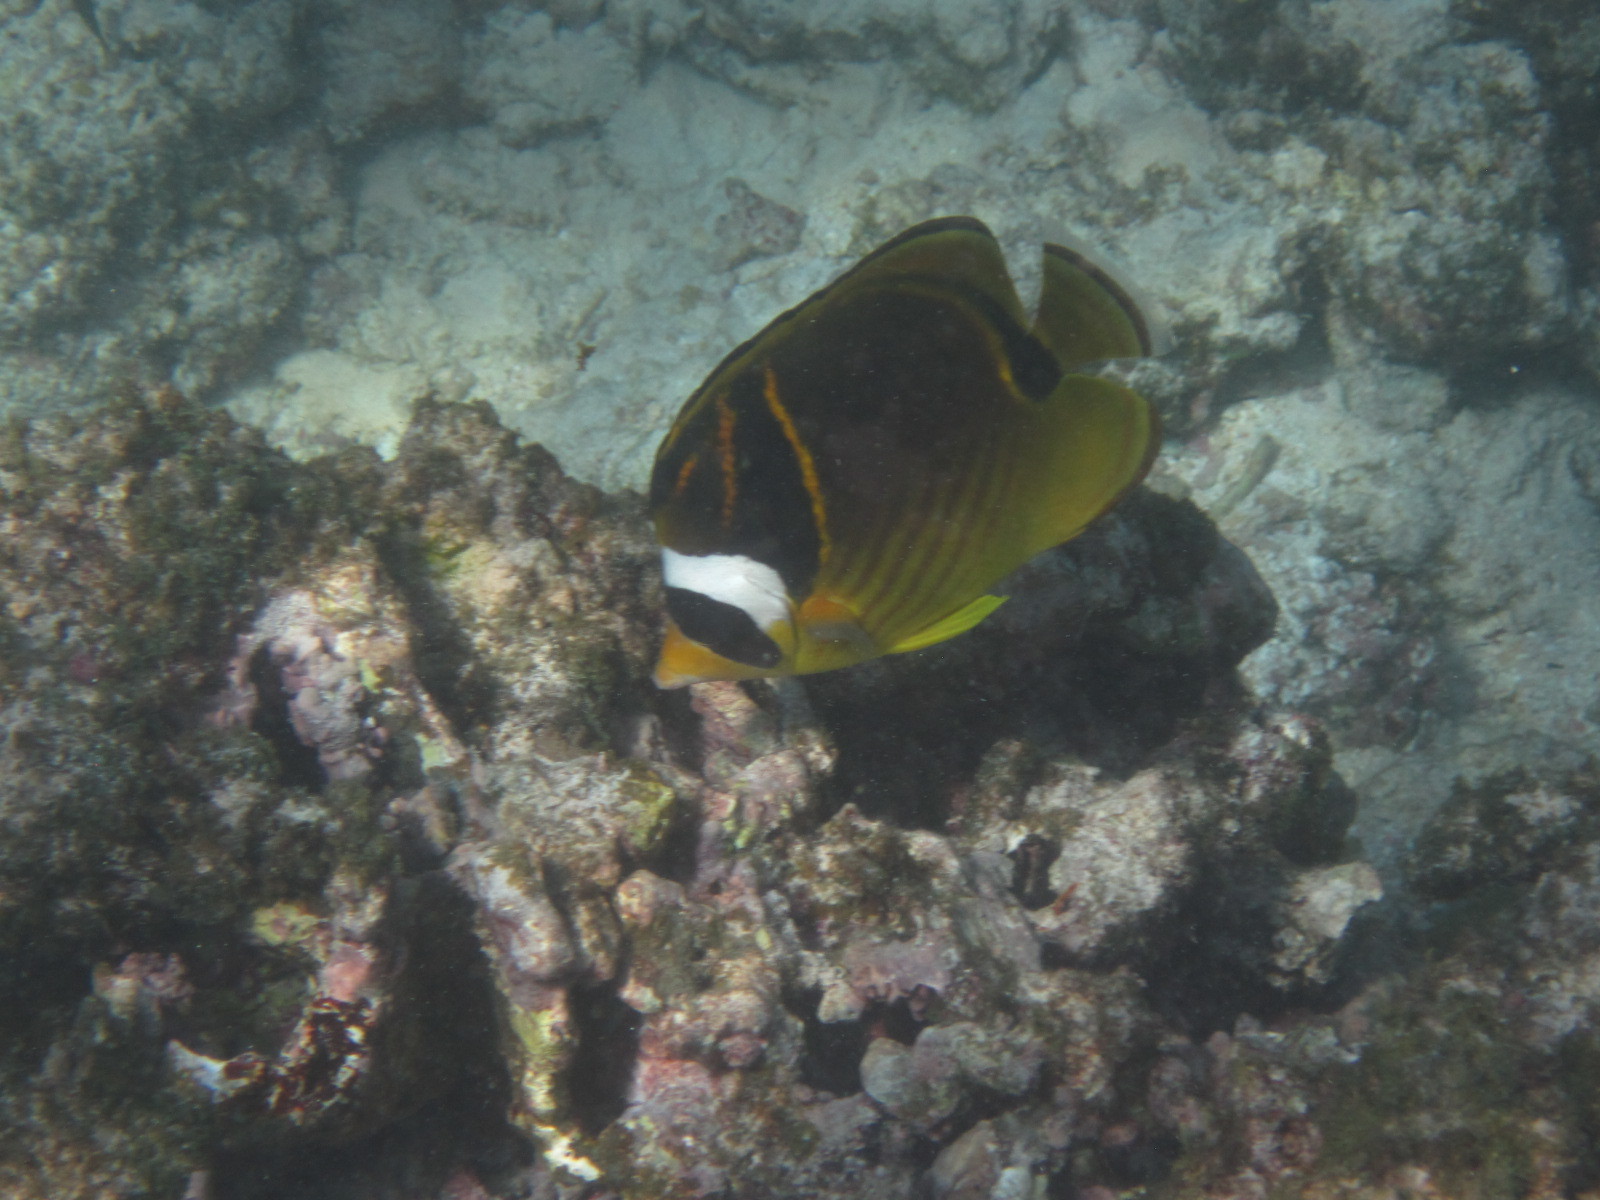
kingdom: Animalia
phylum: Chordata
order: Perciformes
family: Chaetodontidae
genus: Chaetodon
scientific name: Chaetodon lunula
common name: Raccoon butterflyfish
